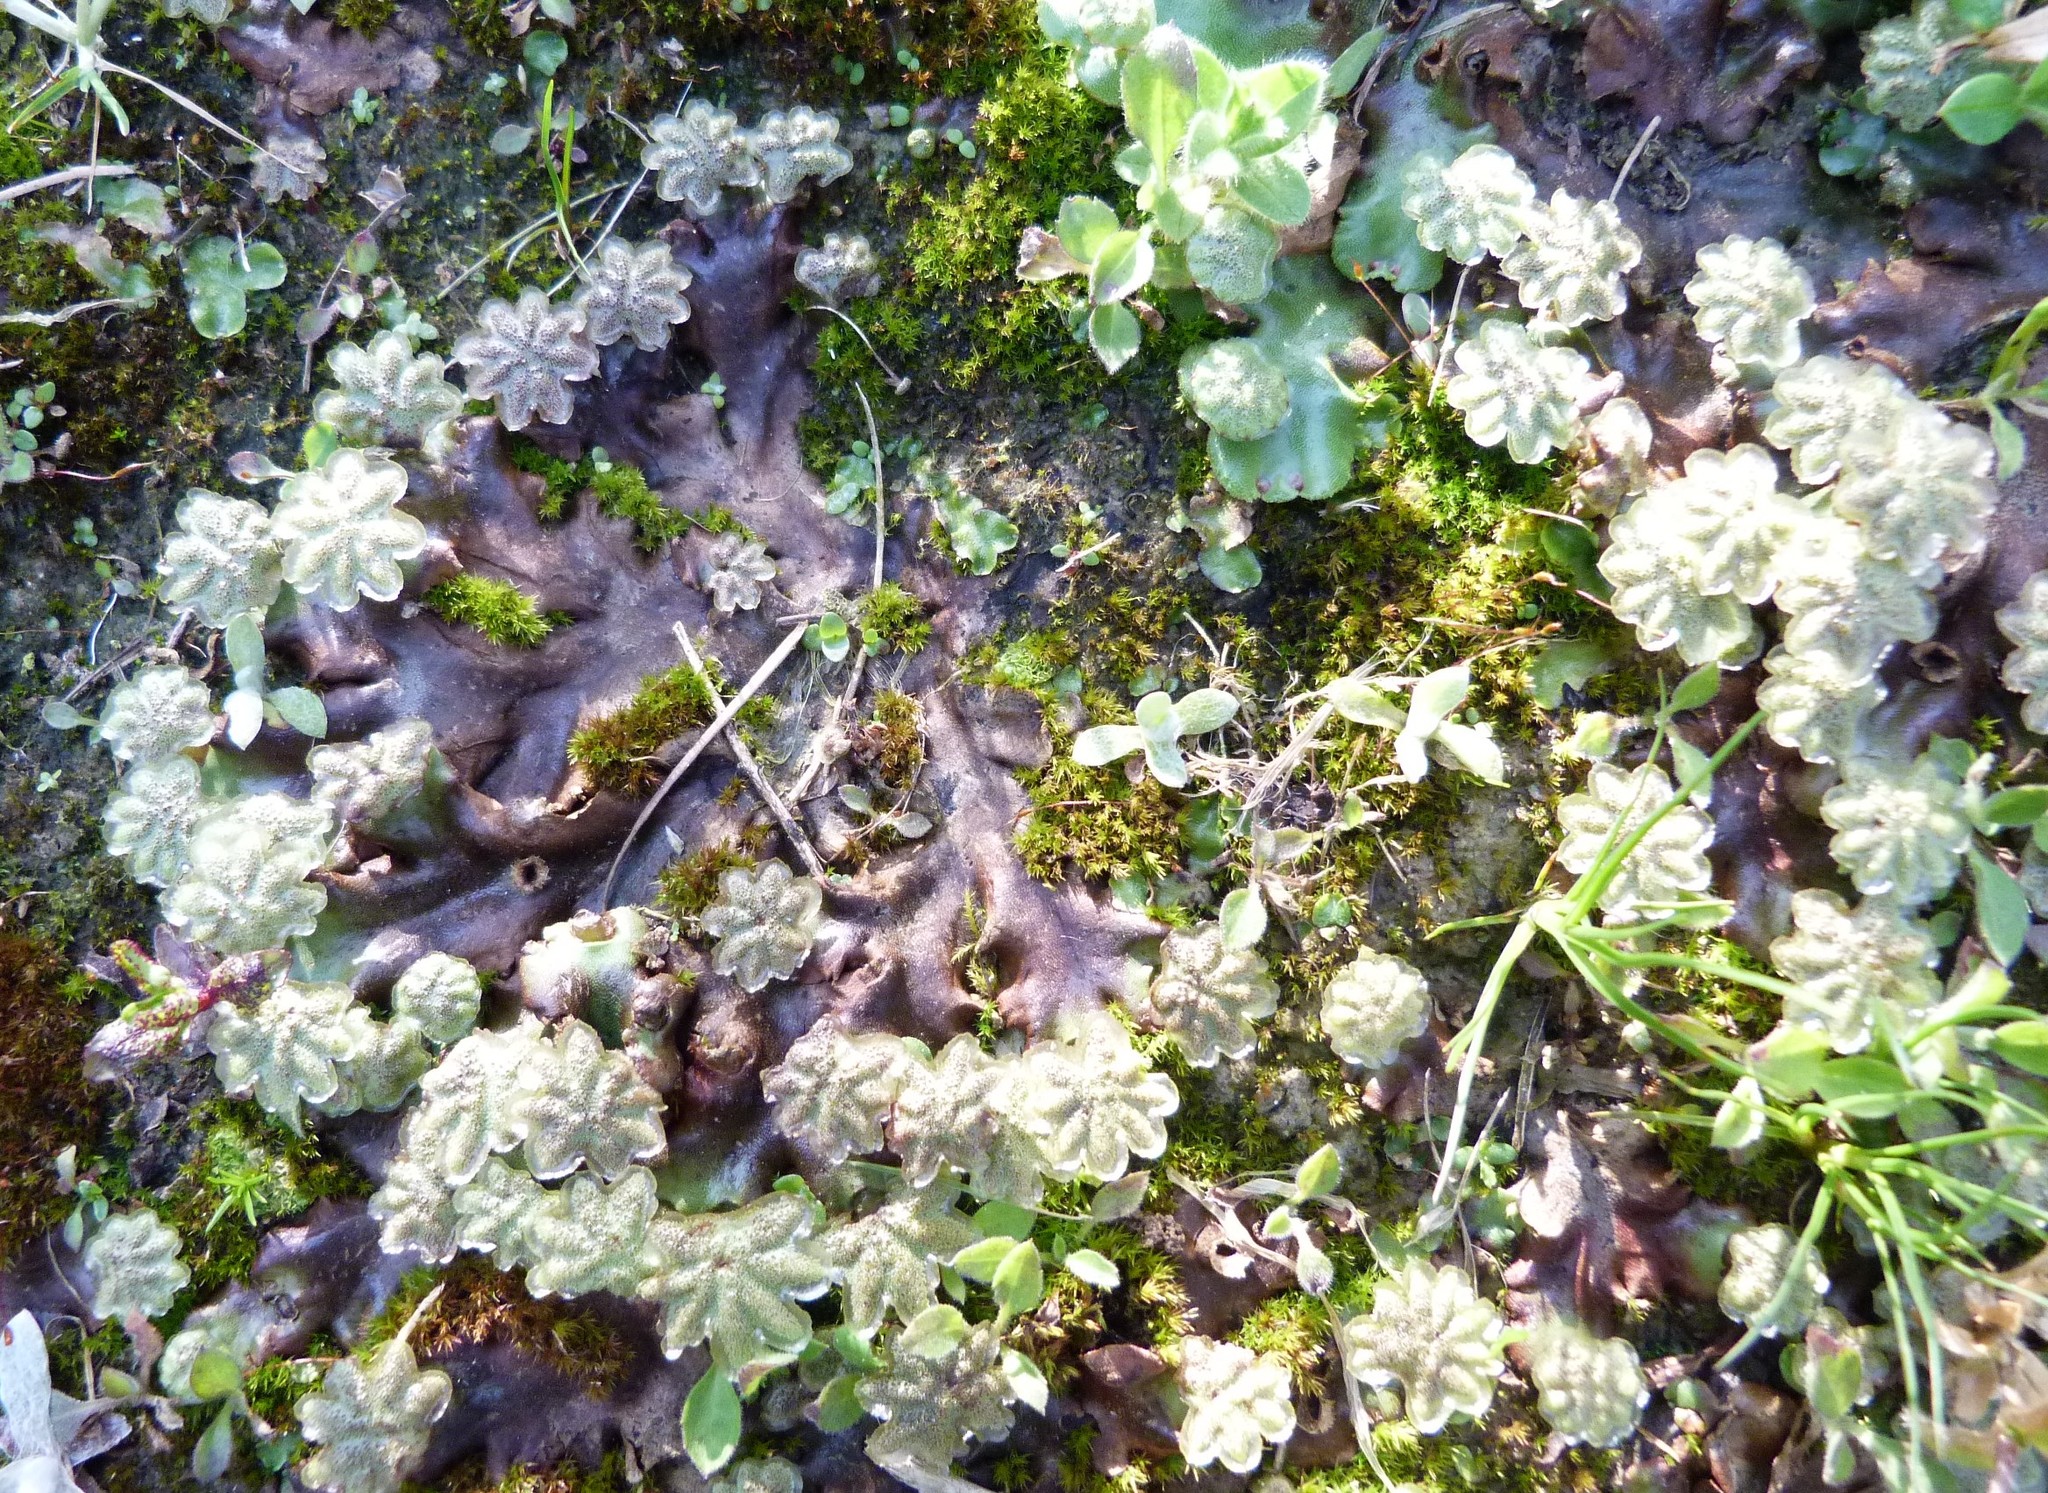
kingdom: Plantae
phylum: Marchantiophyta
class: Marchantiopsida
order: Marchantiales
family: Marchantiaceae
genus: Marchantia
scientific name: Marchantia berteroana
